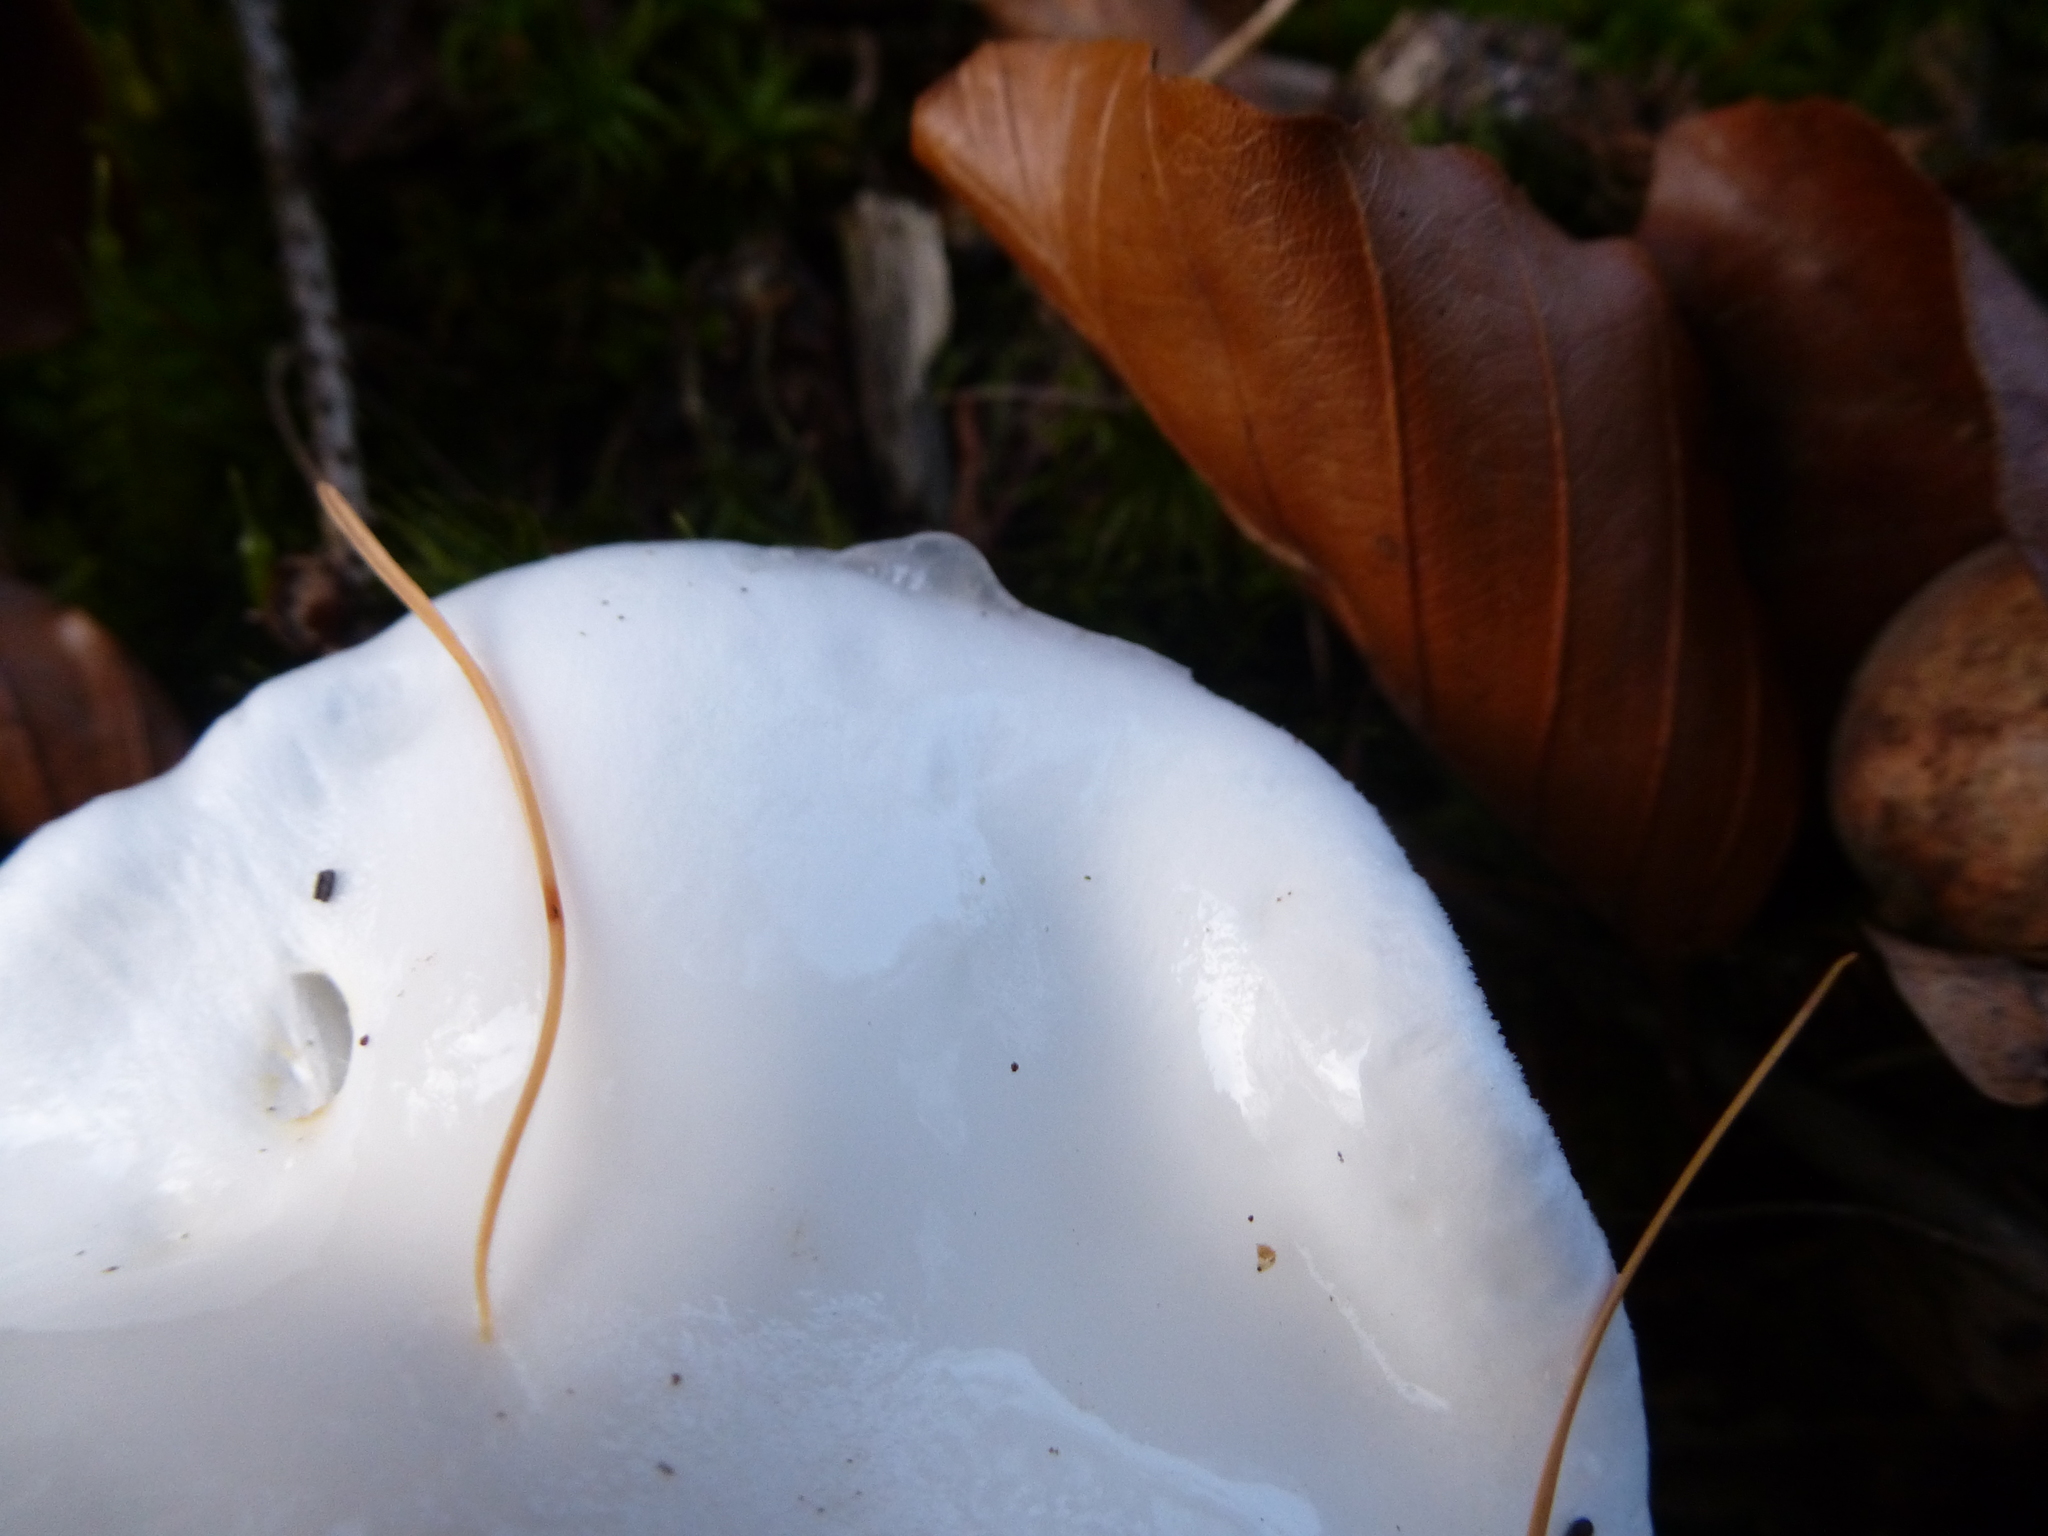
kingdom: Fungi
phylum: Basidiomycota
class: Agaricomycetes
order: Agaricales
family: Hygrophoraceae
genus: Hygrophorus
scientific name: Hygrophorus eburneus
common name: Ivory wax-cap
